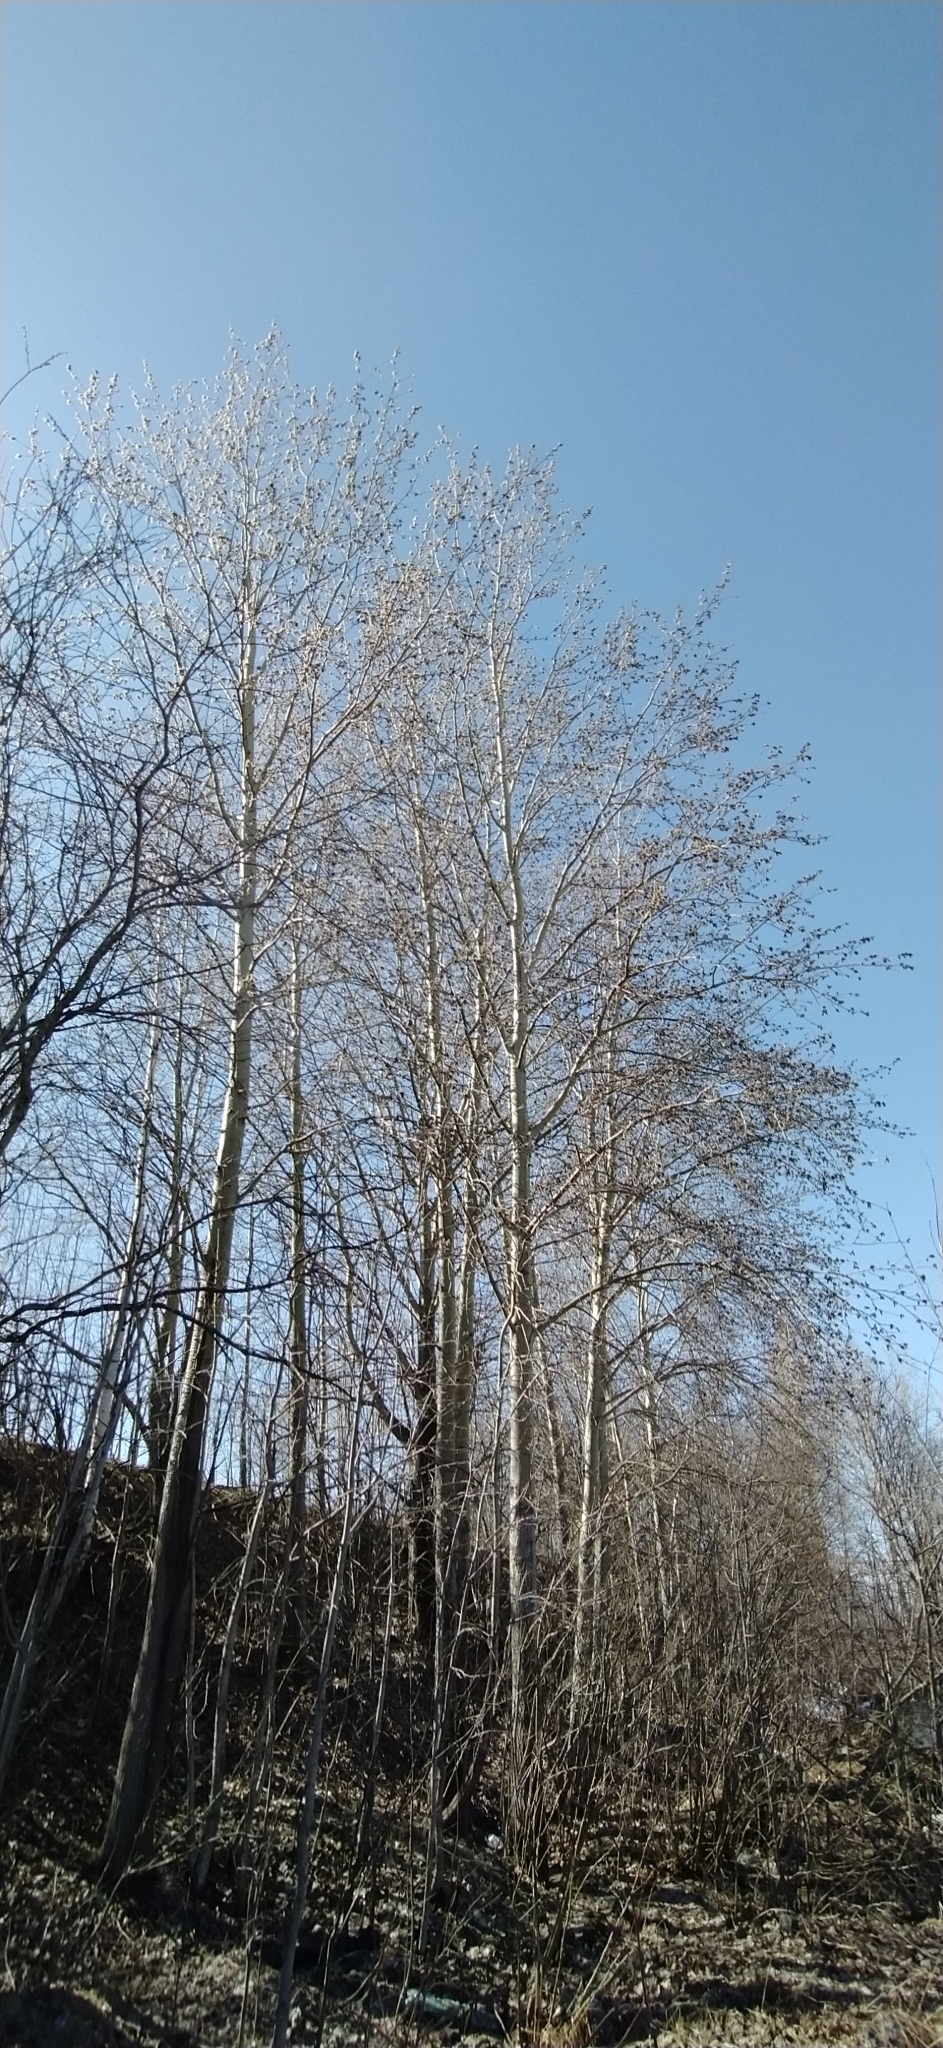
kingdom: Plantae
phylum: Tracheophyta
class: Magnoliopsida
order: Malpighiales
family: Salicaceae
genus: Populus
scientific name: Populus tremula
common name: European aspen
